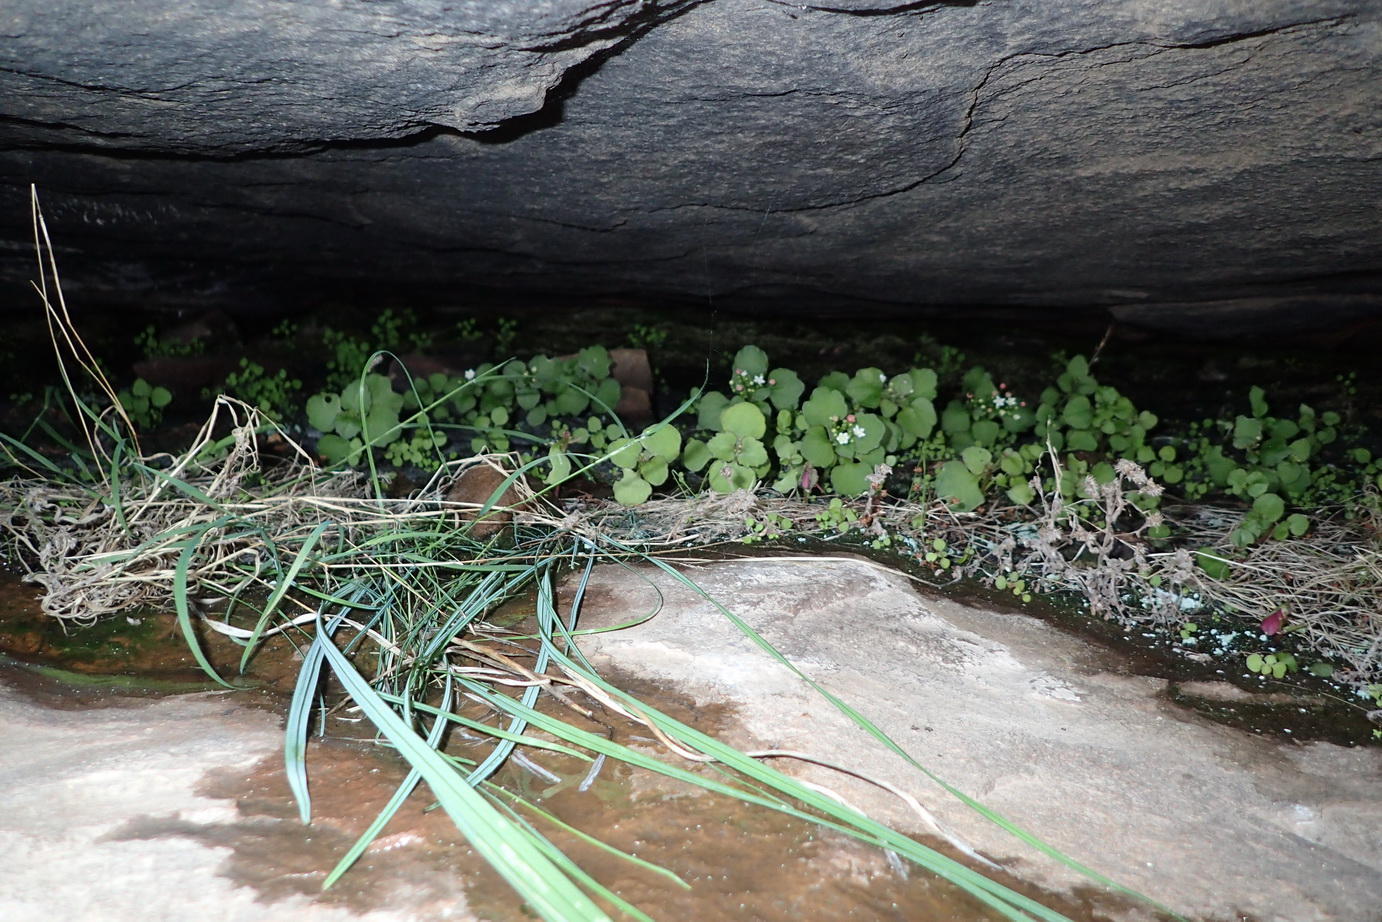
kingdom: Plantae
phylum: Tracheophyta
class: Magnoliopsida
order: Saxifragales
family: Crassulaceae
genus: Crassula
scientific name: Crassula capensis
